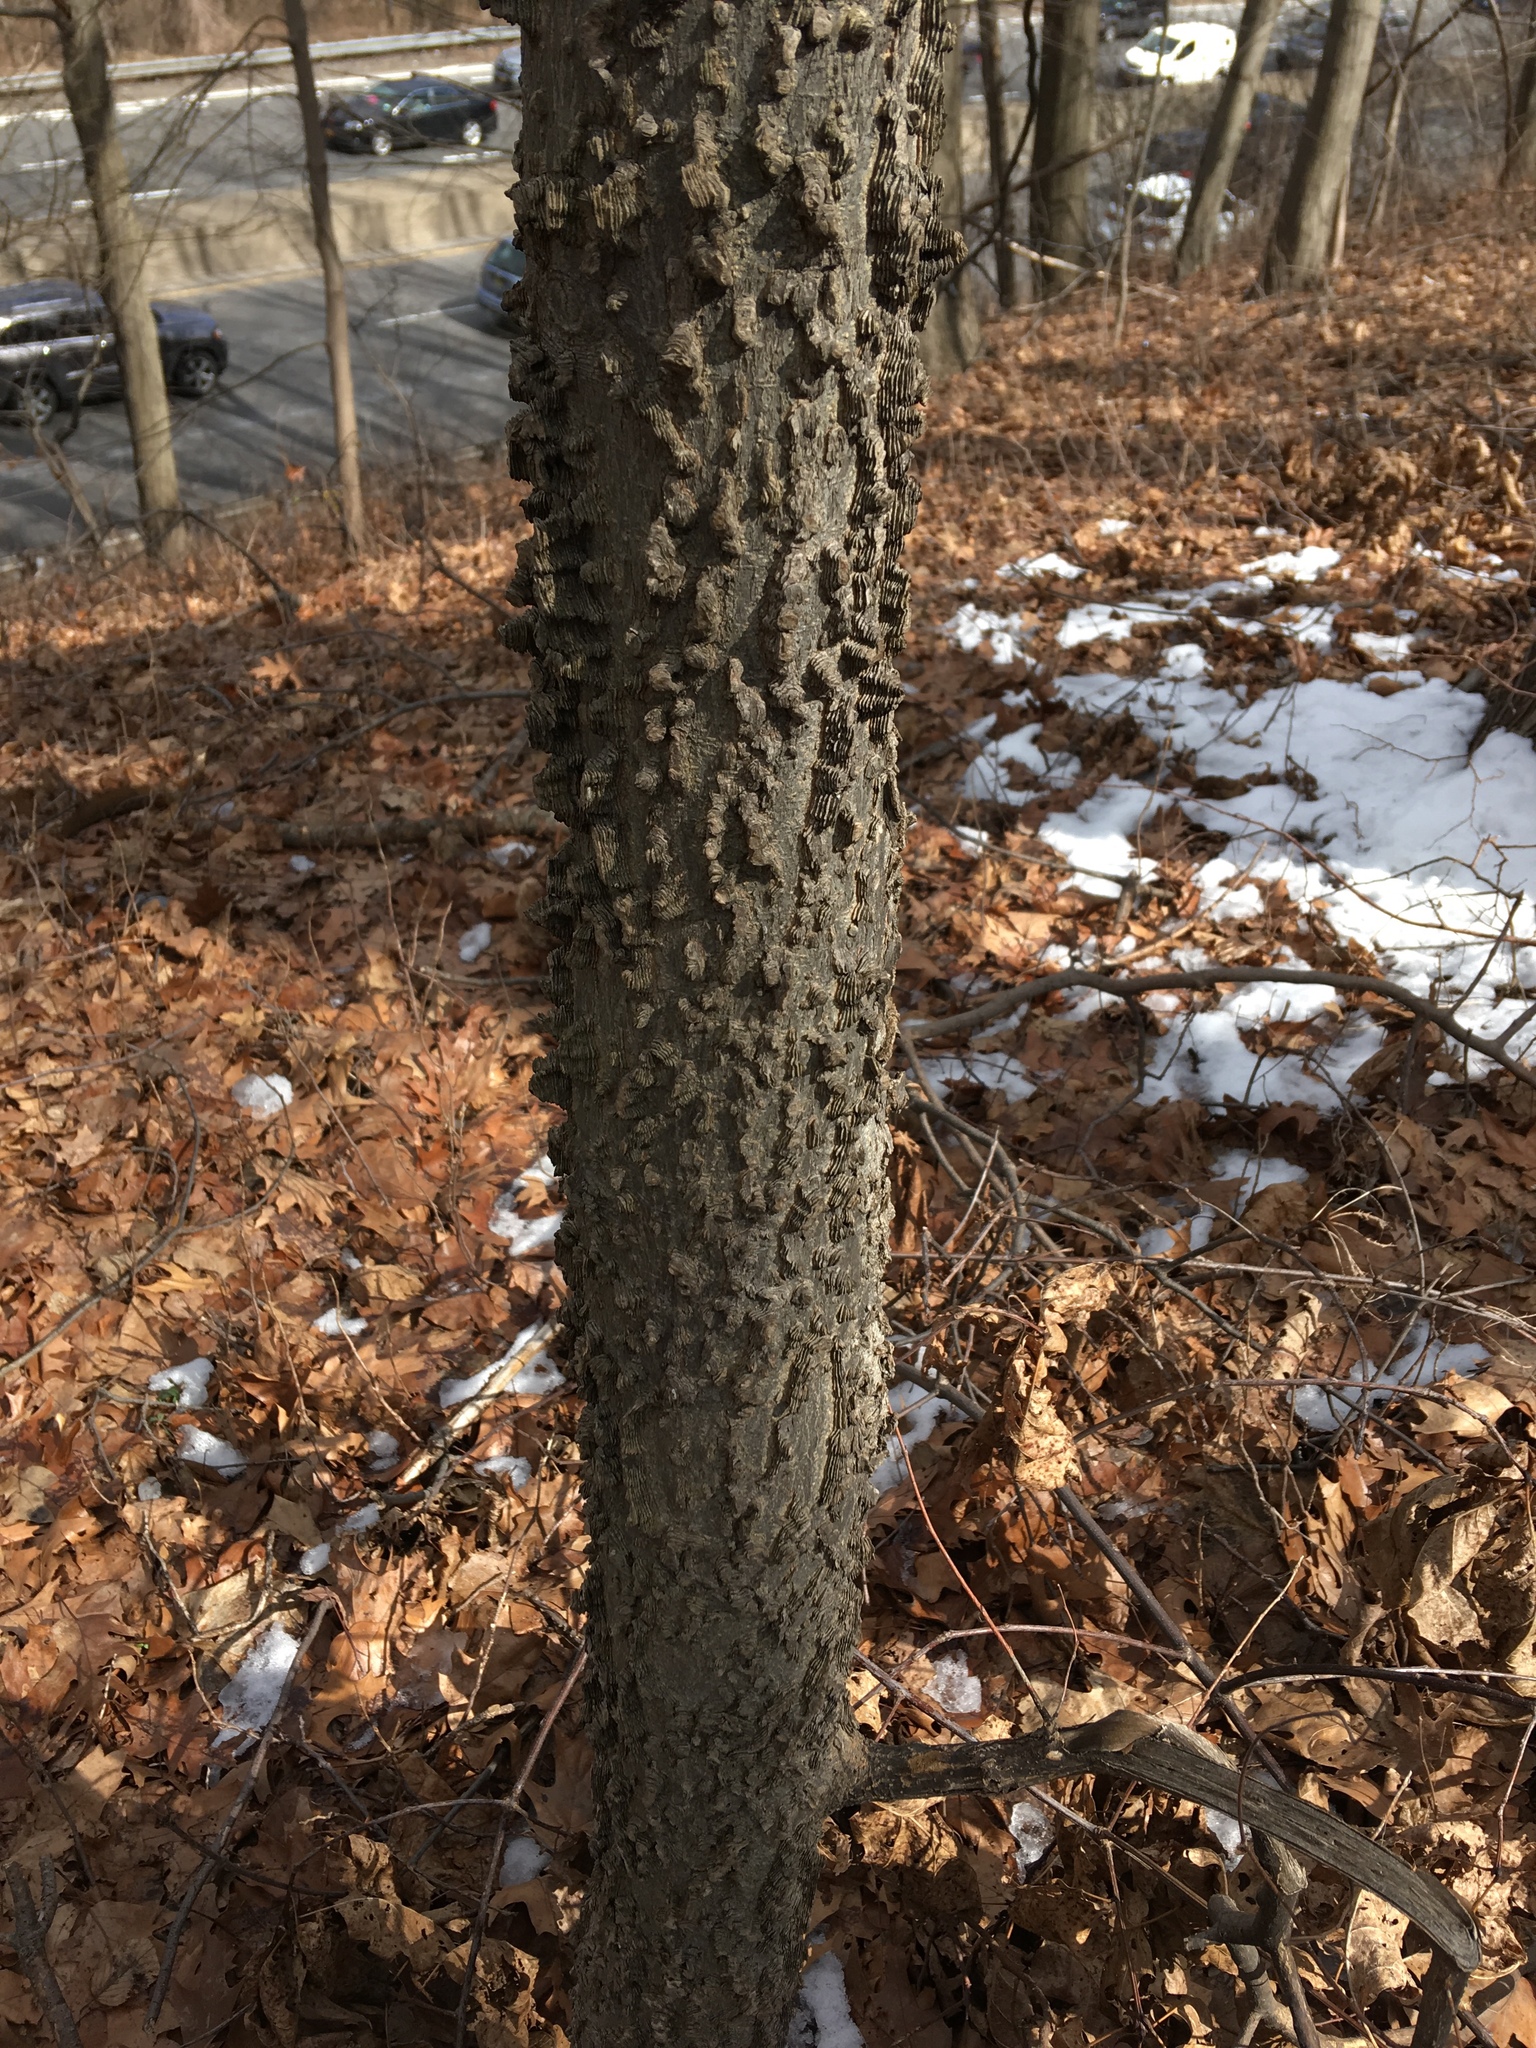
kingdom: Plantae
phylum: Tracheophyta
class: Magnoliopsida
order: Rosales
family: Cannabaceae
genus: Celtis
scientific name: Celtis occidentalis
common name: Common hackberry
